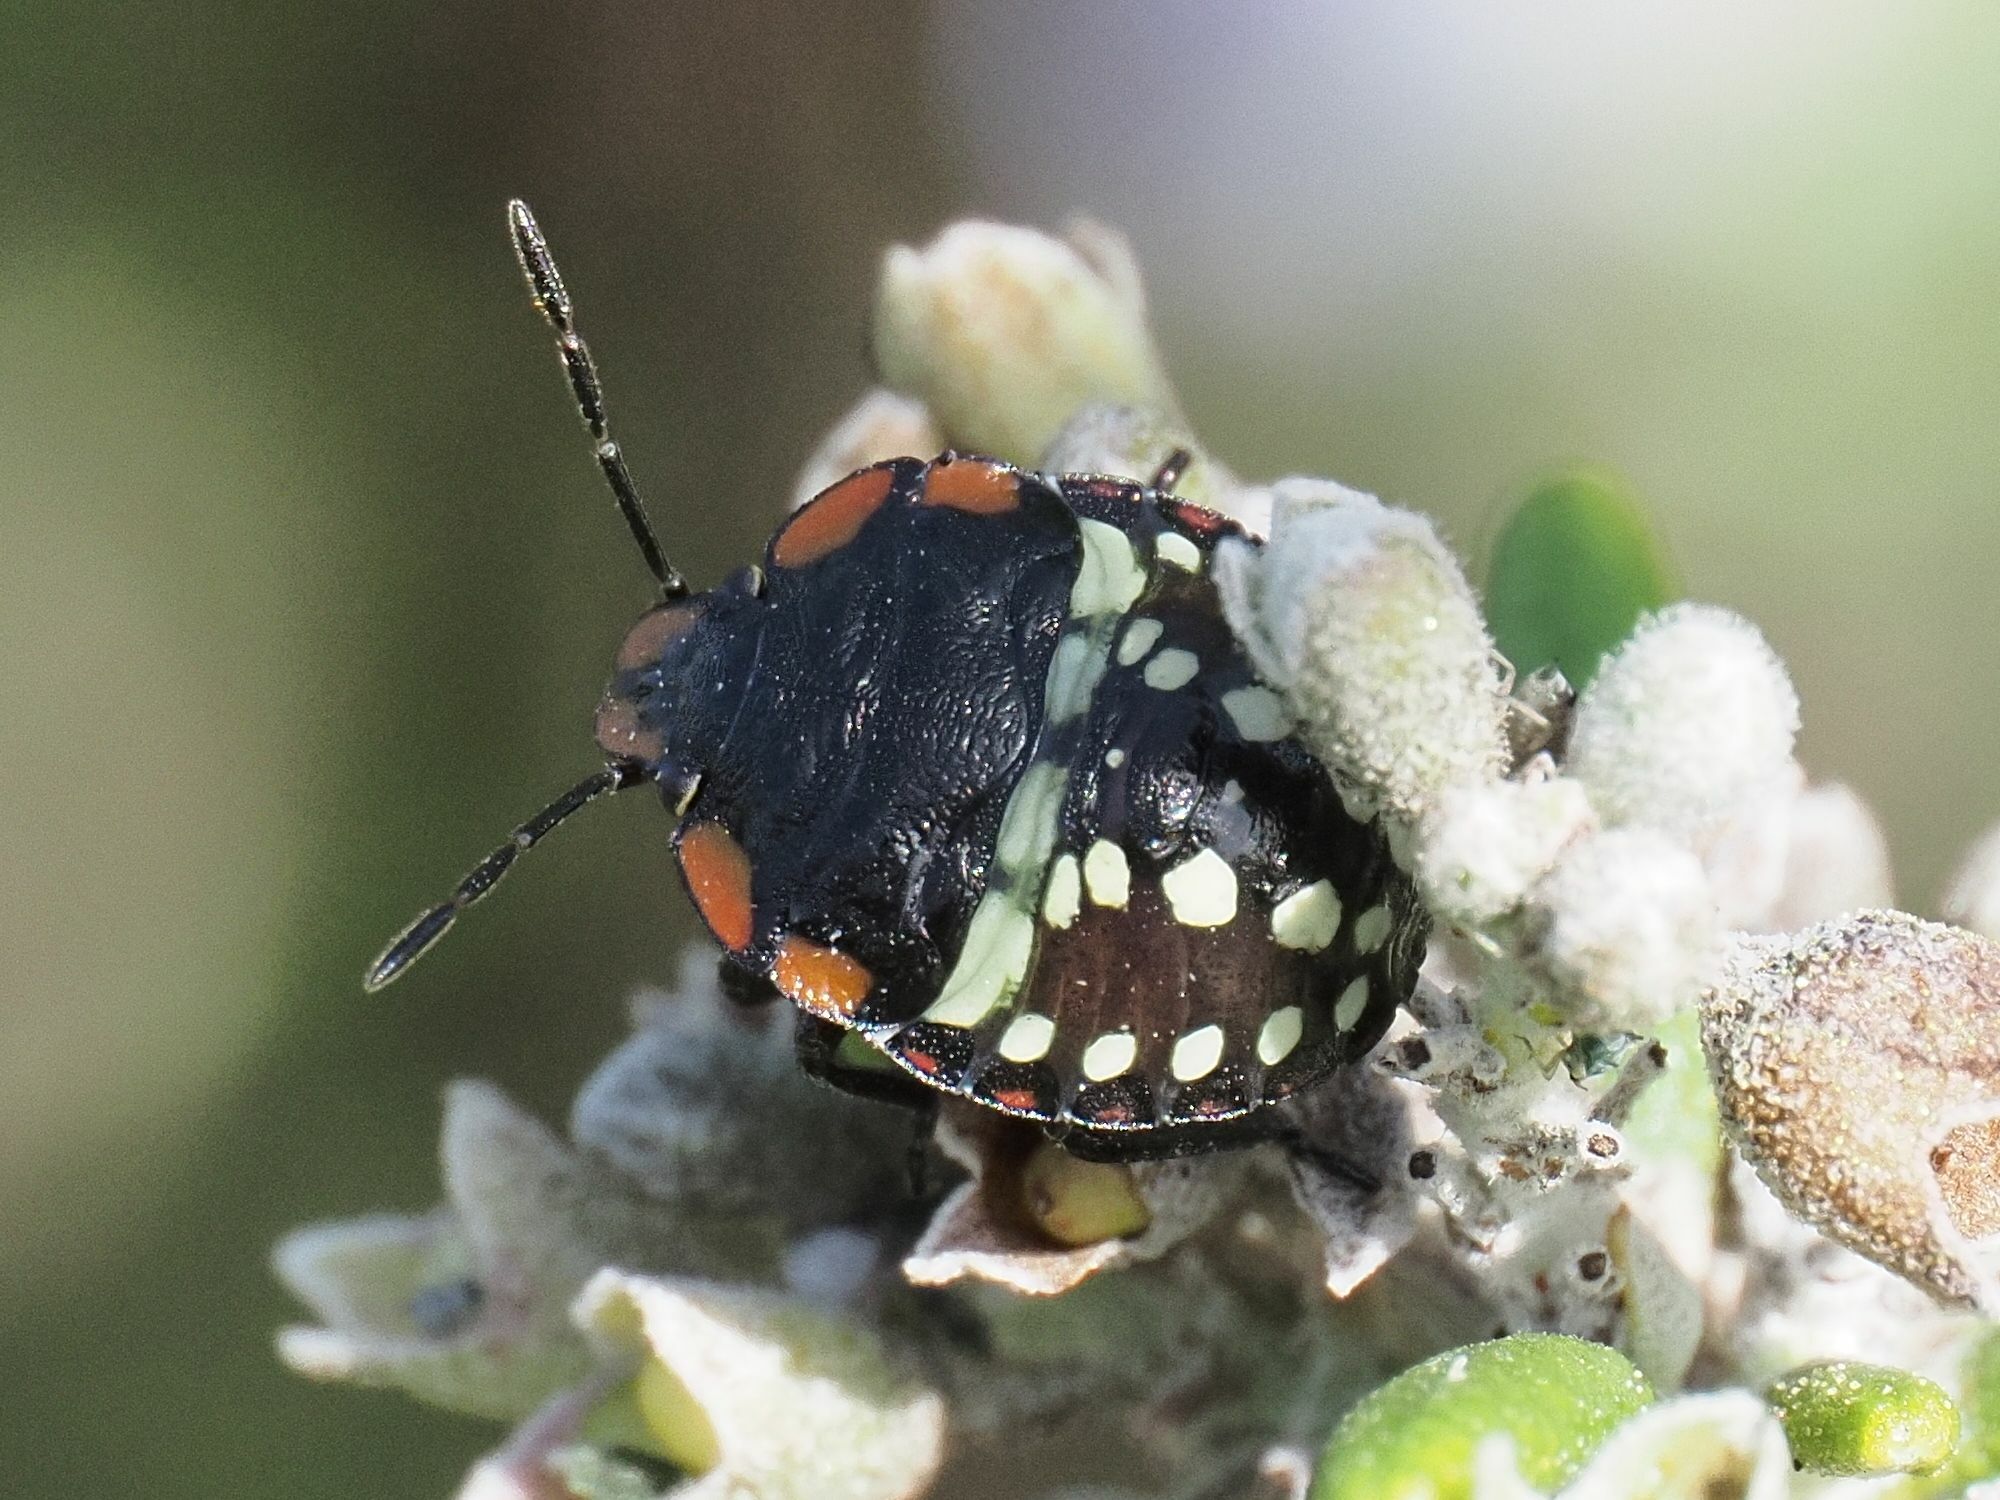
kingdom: Animalia
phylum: Arthropoda
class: Insecta
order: Hemiptera
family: Pentatomidae
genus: Nezara
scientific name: Nezara viridula
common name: Southern green stink bug
